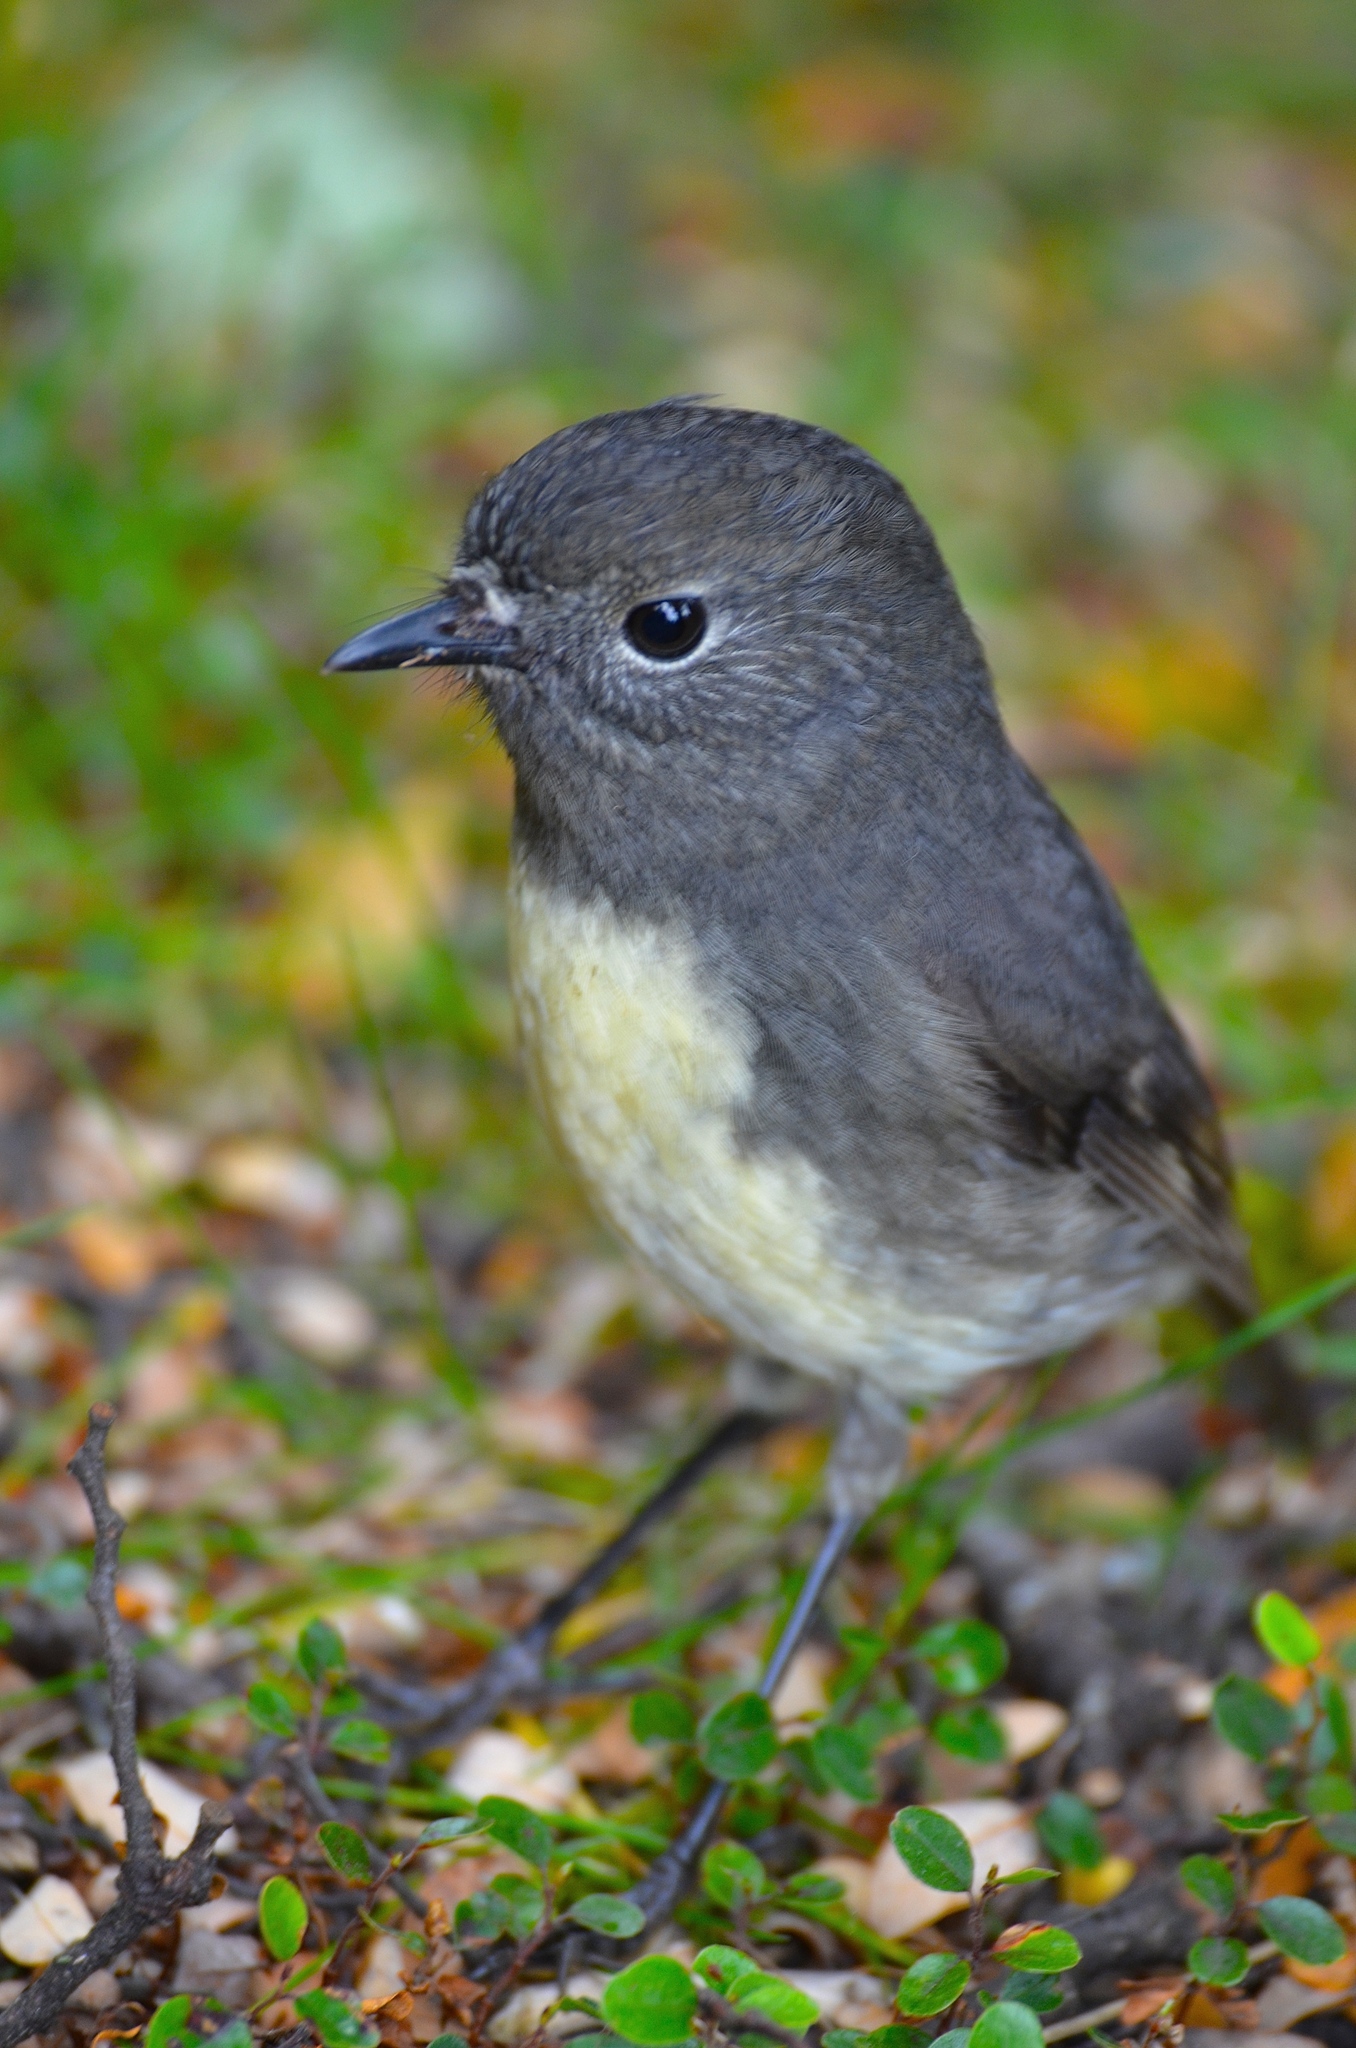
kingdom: Animalia
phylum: Chordata
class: Aves
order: Passeriformes
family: Petroicidae
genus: Petroica
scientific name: Petroica australis
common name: New zealand robin
